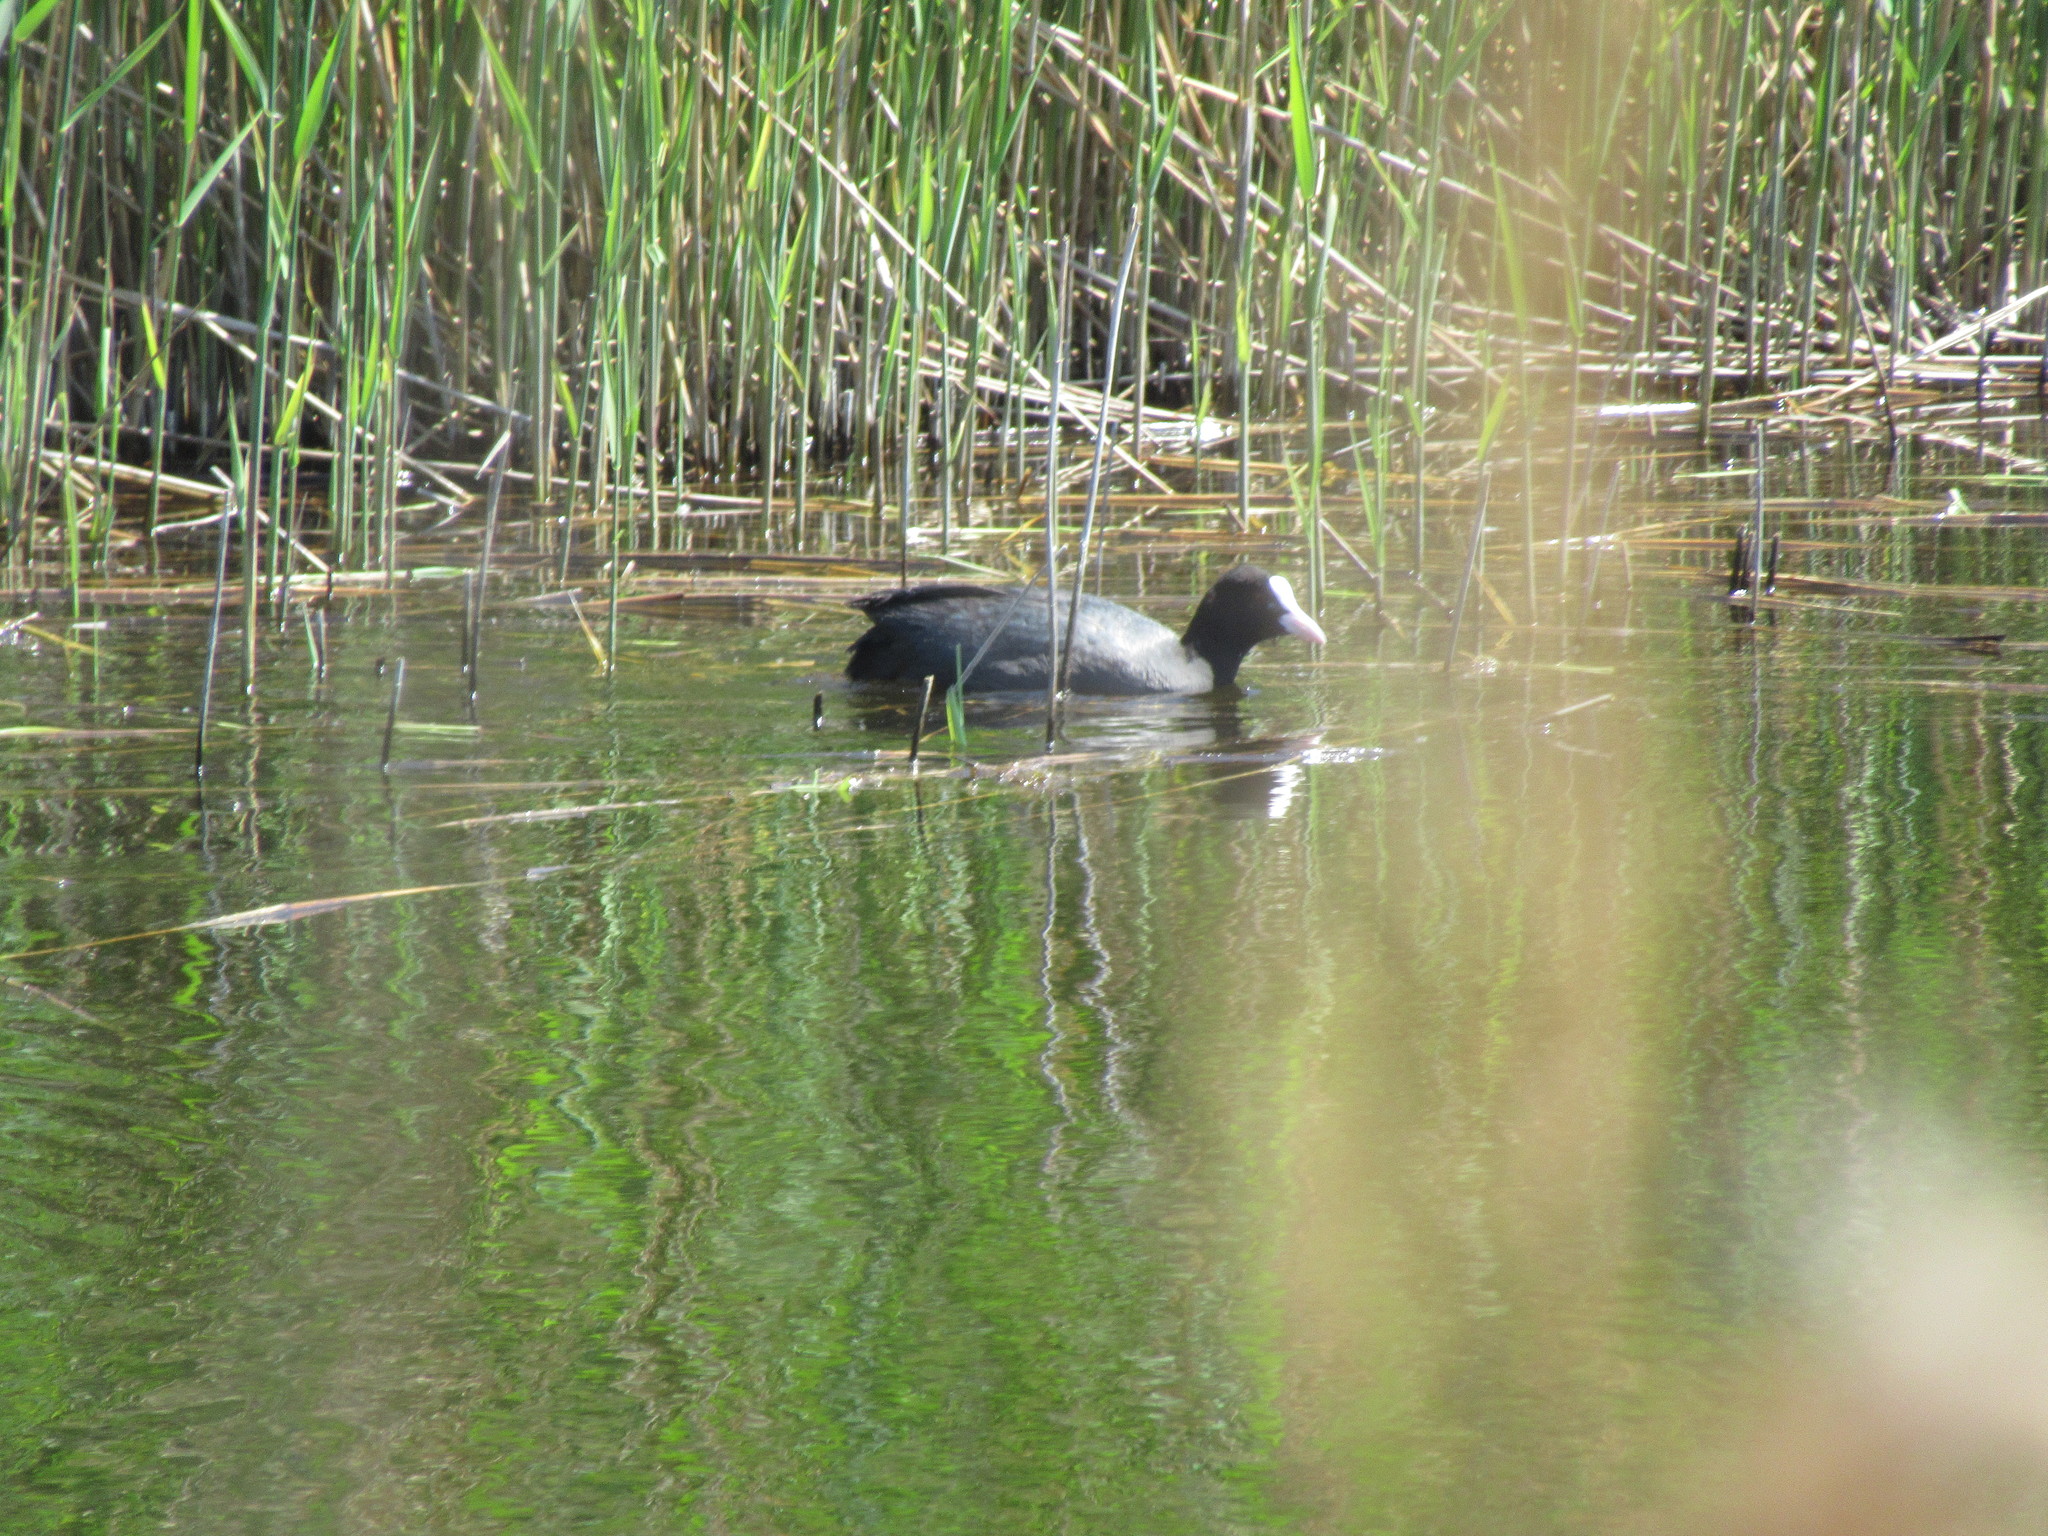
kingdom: Animalia
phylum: Chordata
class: Aves
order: Gruiformes
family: Rallidae
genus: Fulica
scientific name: Fulica atra
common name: Eurasian coot
